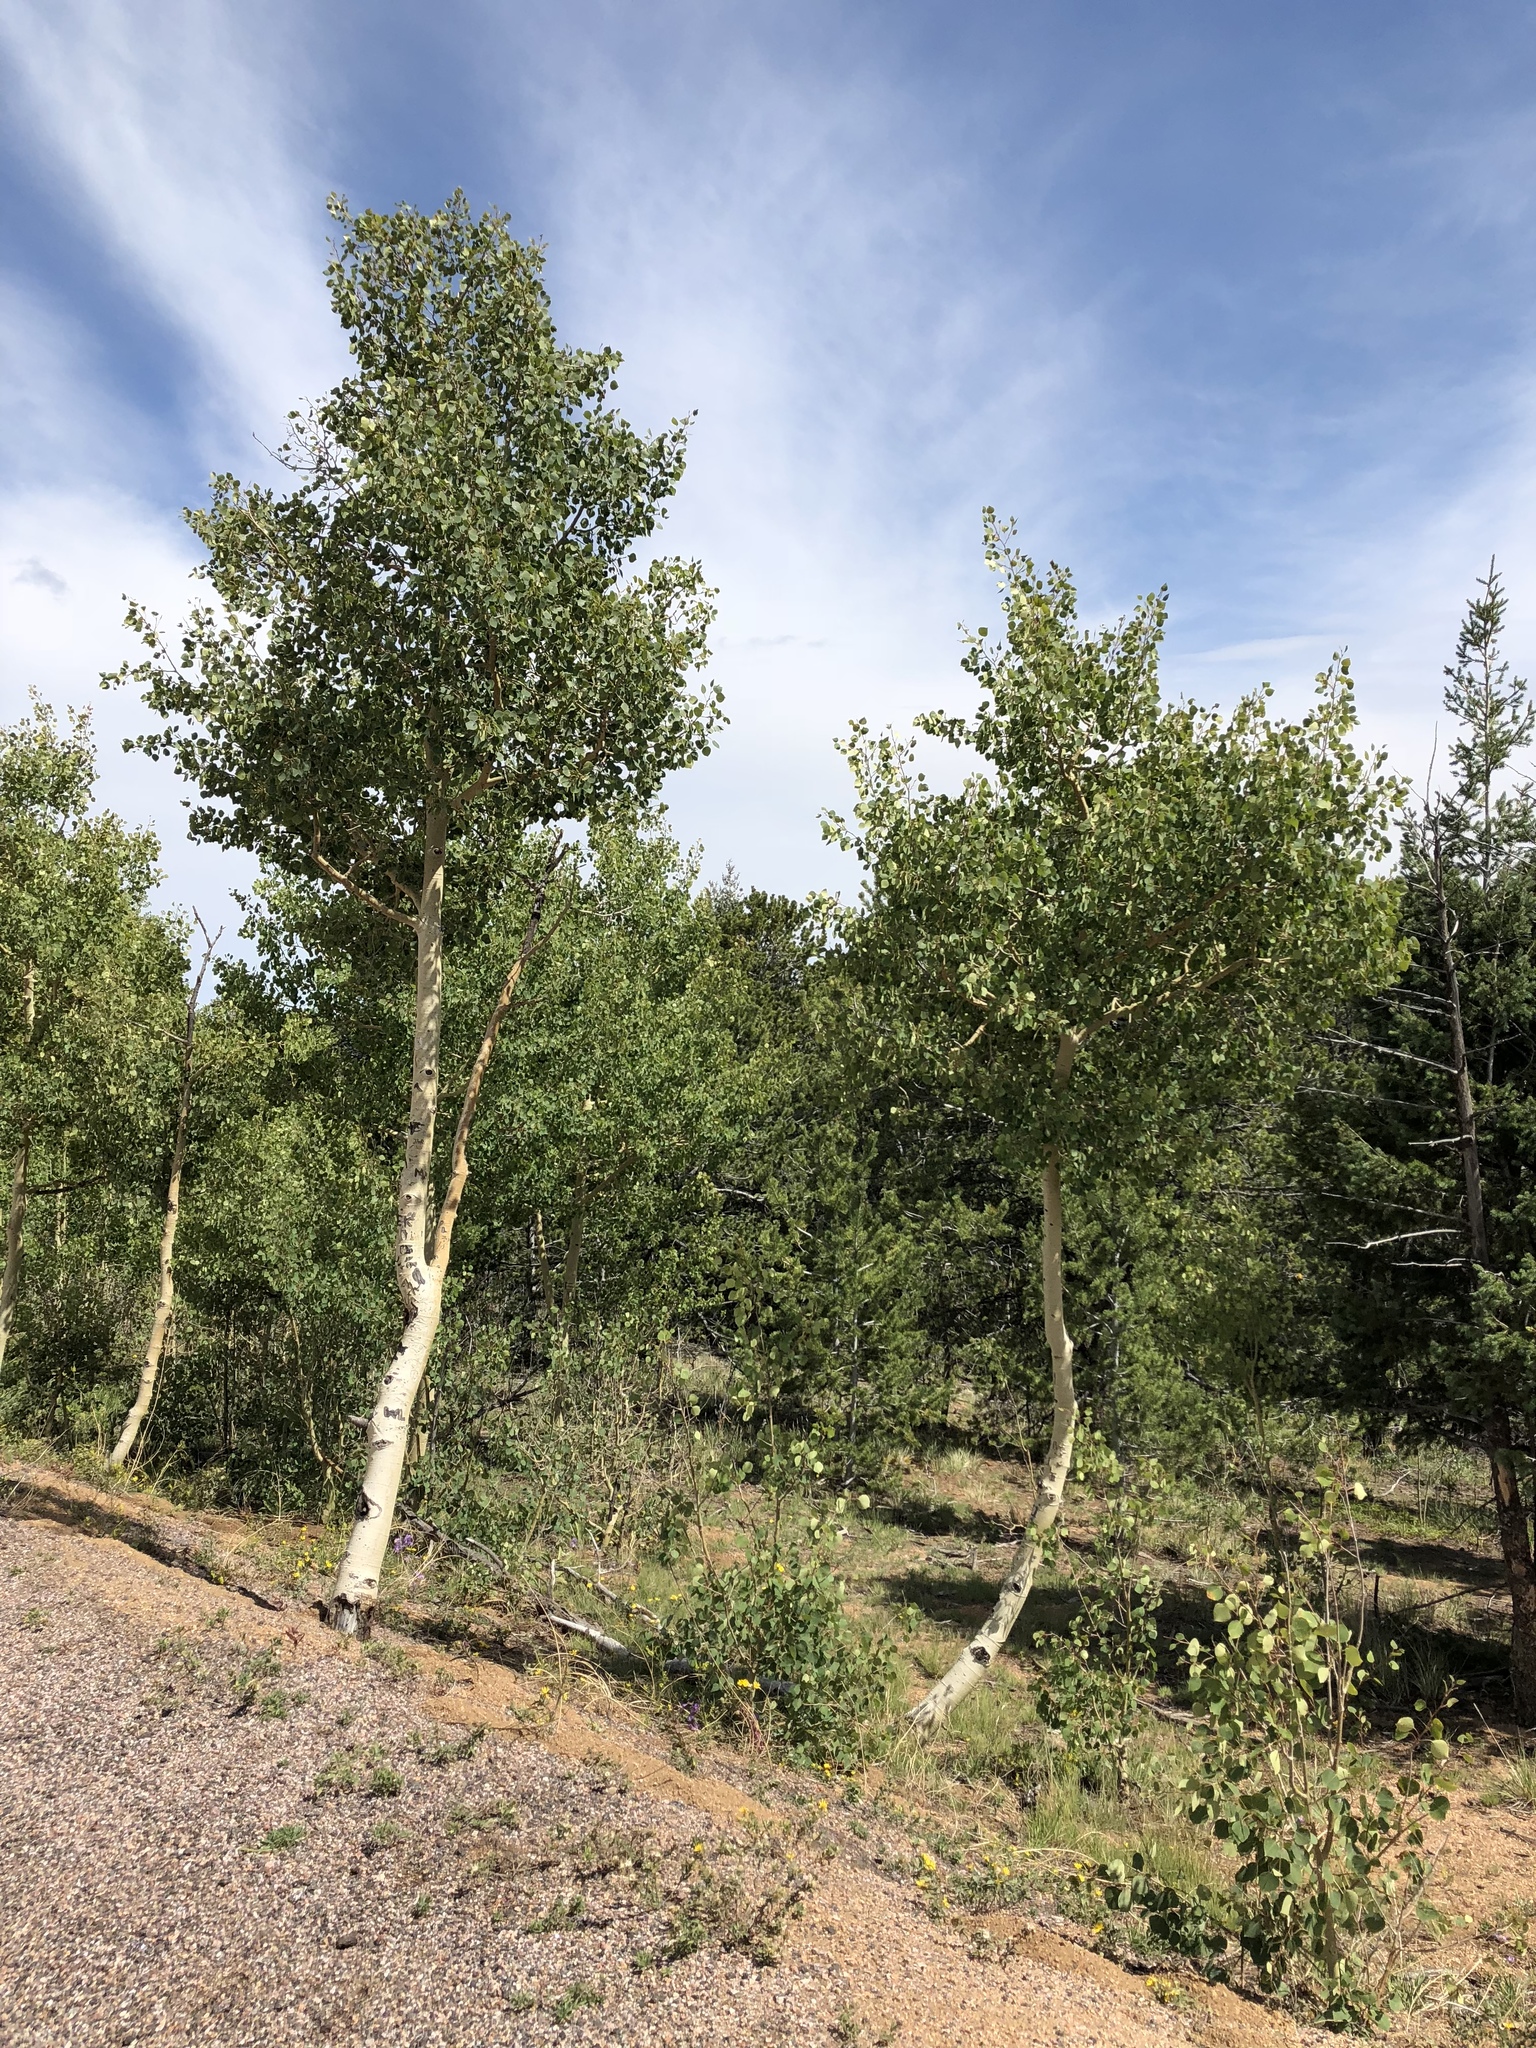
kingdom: Plantae
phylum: Tracheophyta
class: Magnoliopsida
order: Malpighiales
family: Salicaceae
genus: Populus
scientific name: Populus tremuloides
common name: Quaking aspen
